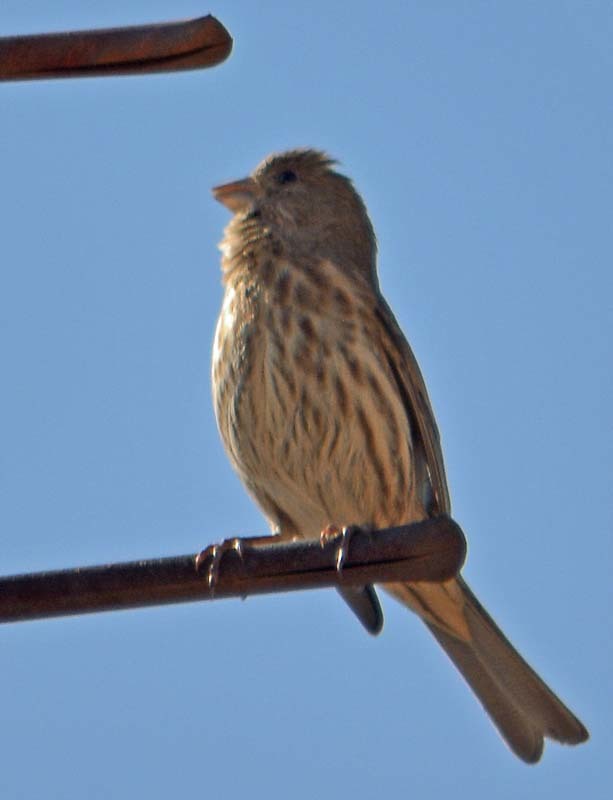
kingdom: Animalia
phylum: Chordata
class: Aves
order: Passeriformes
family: Fringillidae
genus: Haemorhous
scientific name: Haemorhous mexicanus
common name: House finch
